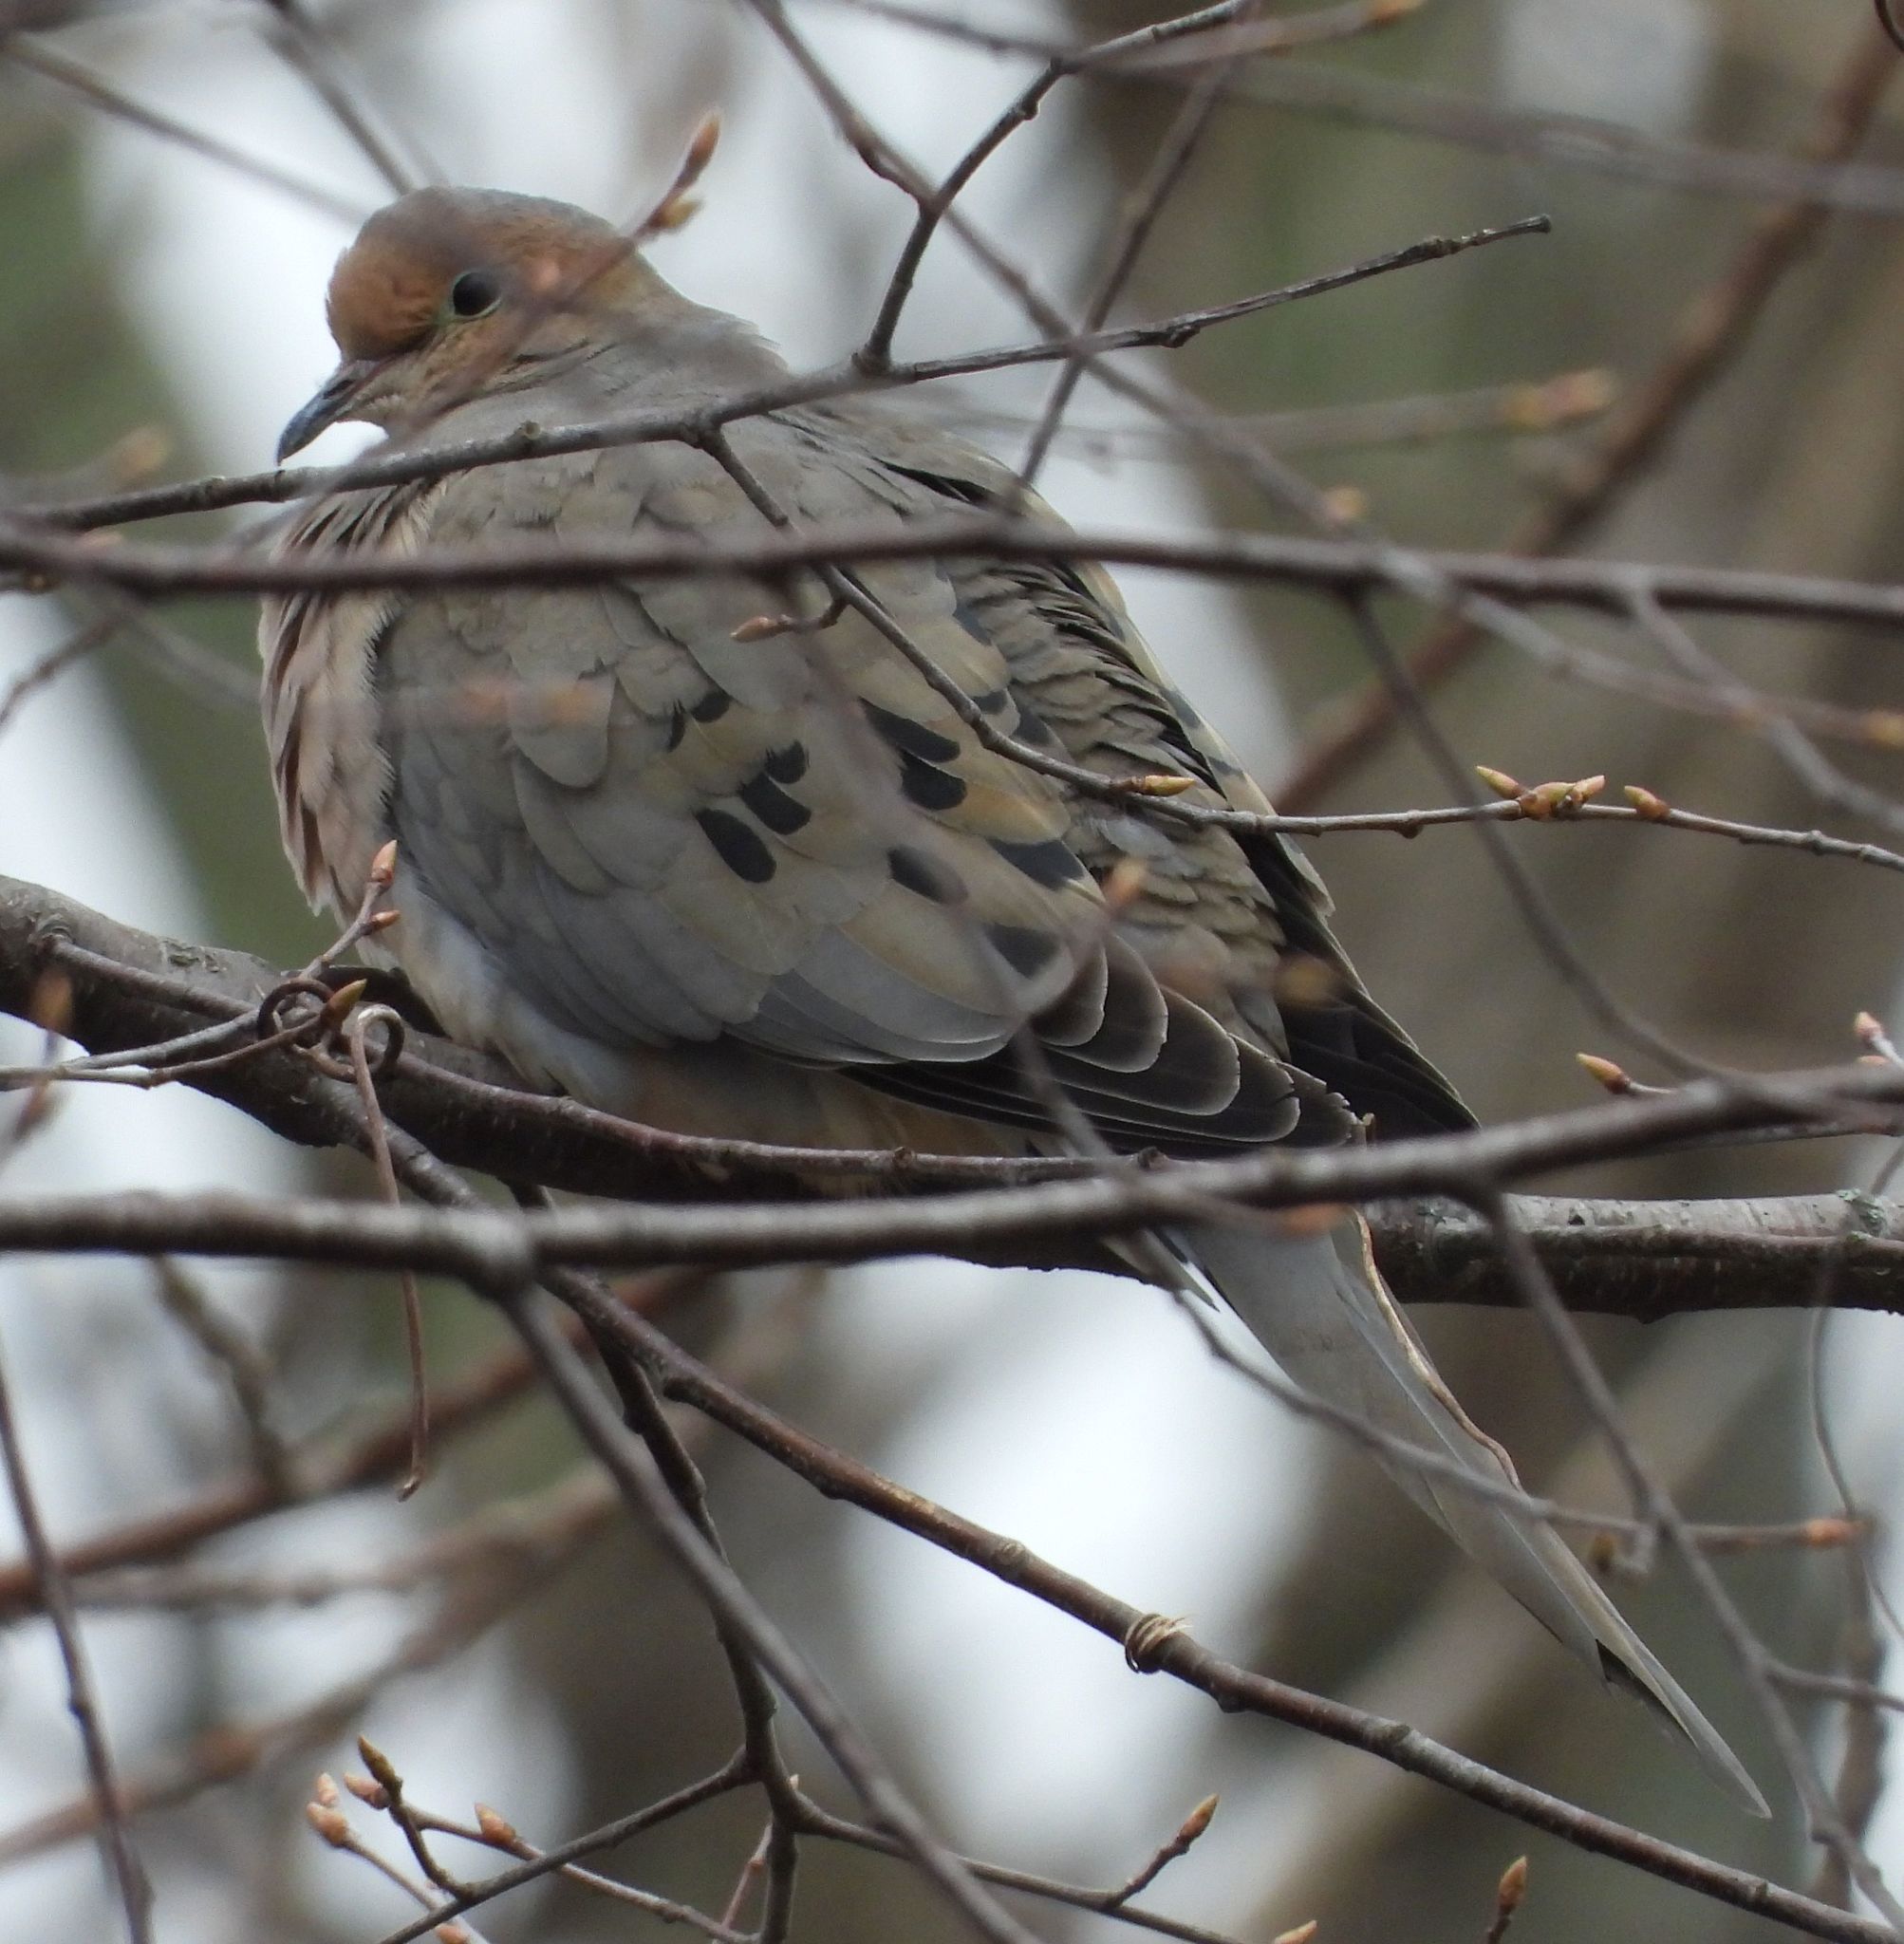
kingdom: Animalia
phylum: Chordata
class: Aves
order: Columbiformes
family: Columbidae
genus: Zenaida
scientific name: Zenaida macroura
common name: Mourning dove
